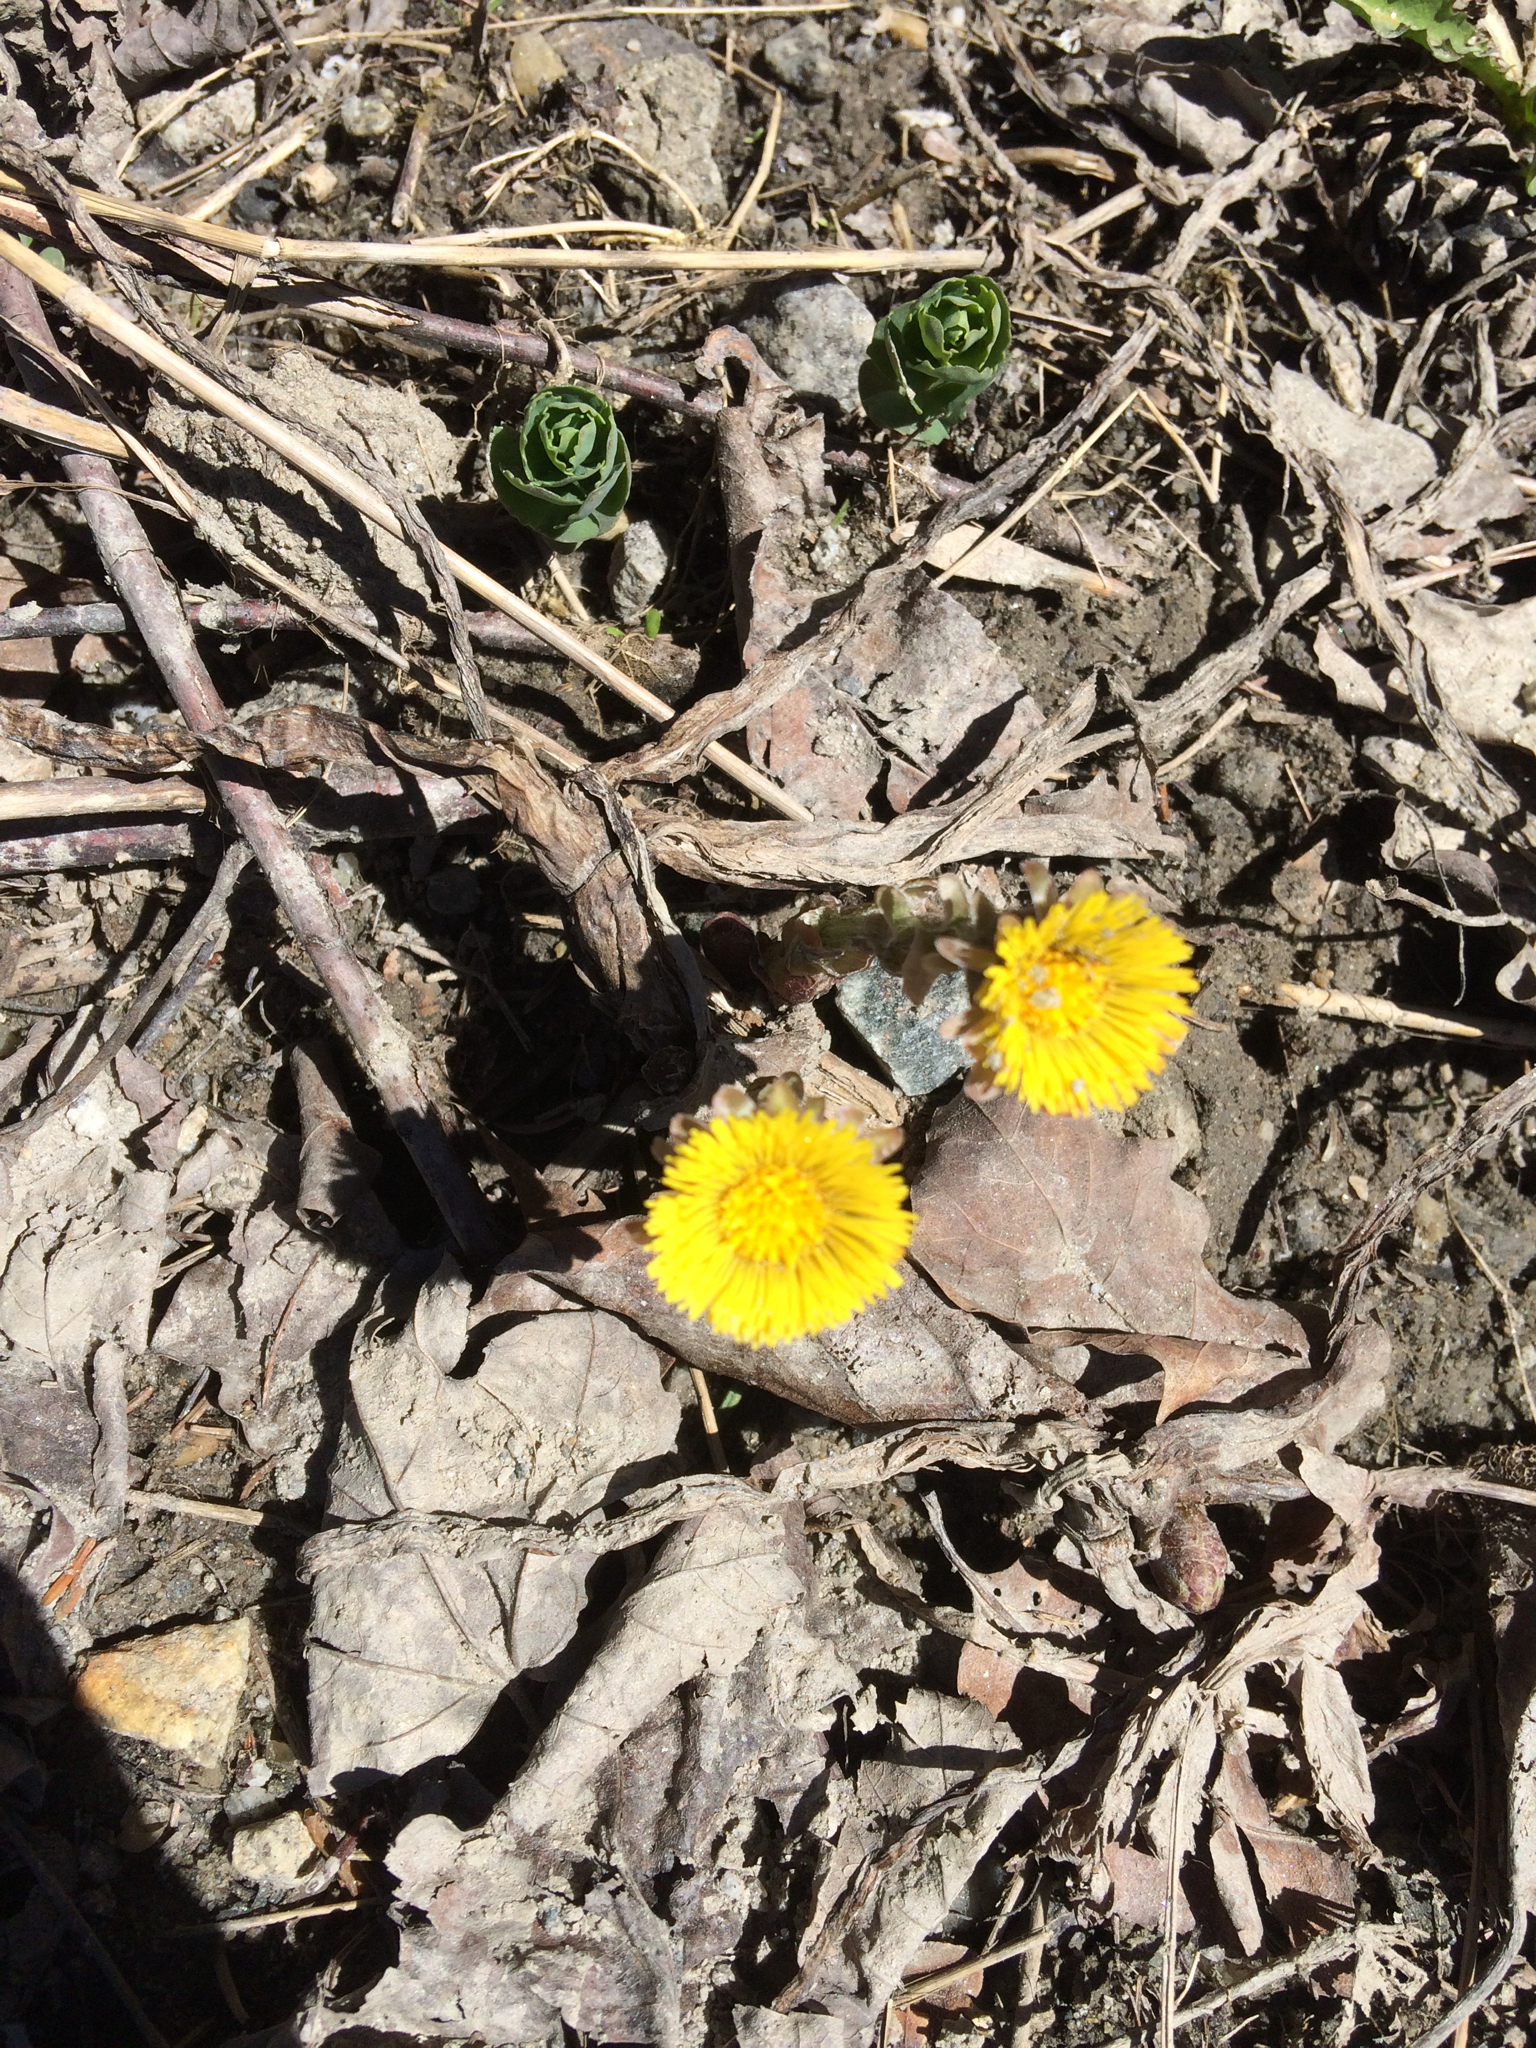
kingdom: Plantae
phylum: Tracheophyta
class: Magnoliopsida
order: Asterales
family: Asteraceae
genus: Tussilago
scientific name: Tussilago farfara
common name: Coltsfoot
